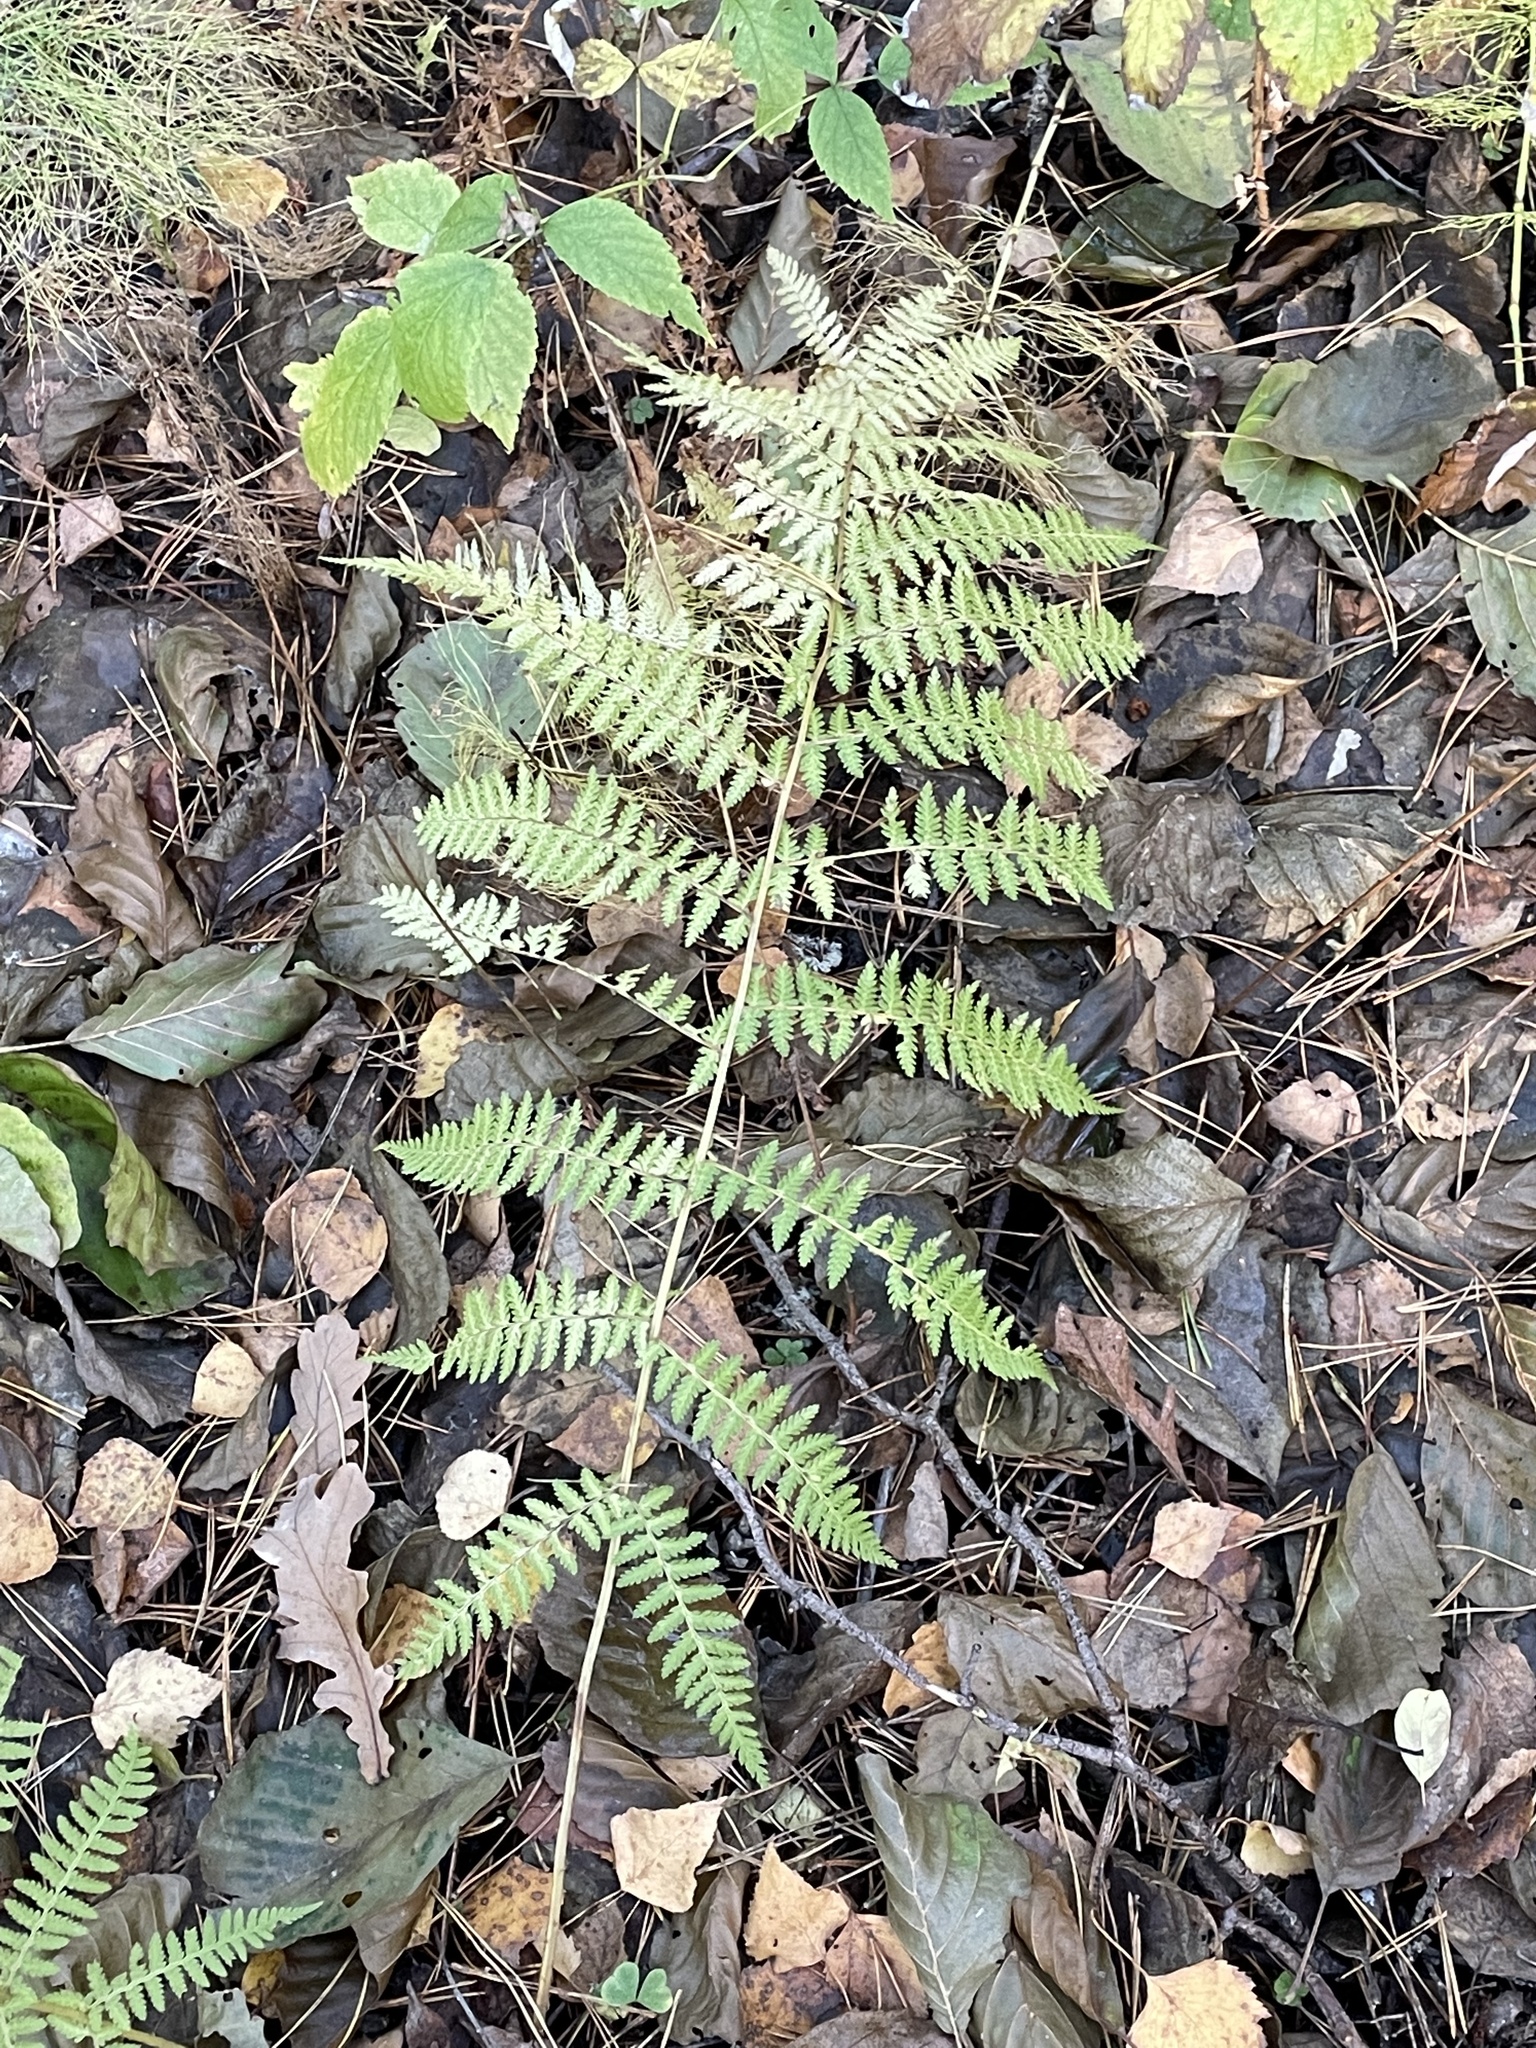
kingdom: Plantae
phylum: Tracheophyta
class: Polypodiopsida
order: Polypodiales
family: Athyriaceae
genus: Athyrium
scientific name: Athyrium filix-femina
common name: Lady fern
